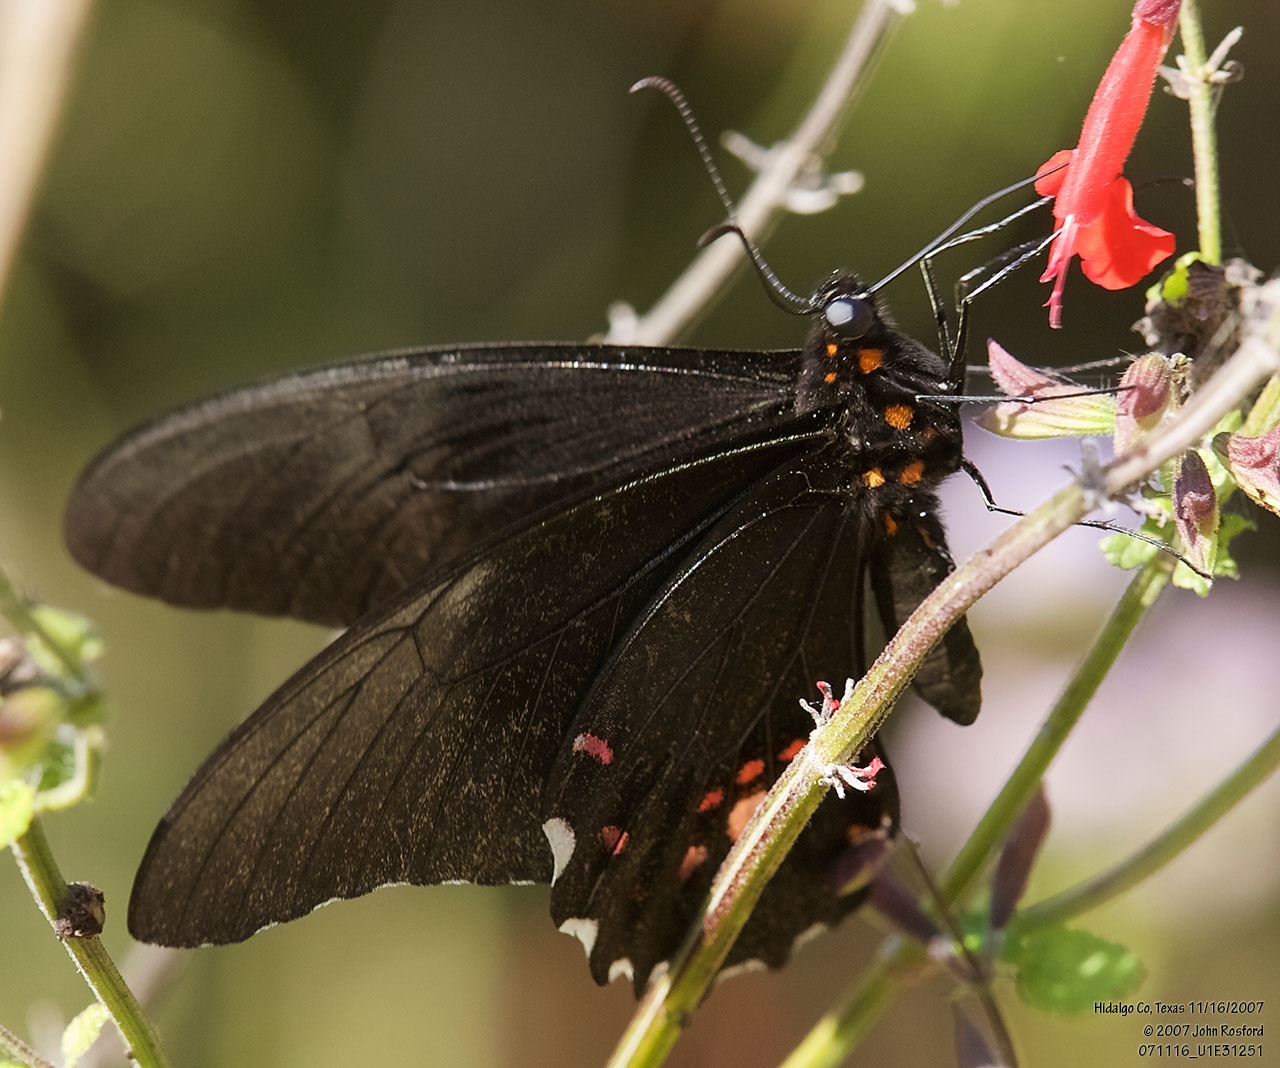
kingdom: Animalia
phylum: Arthropoda
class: Insecta
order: Lepidoptera
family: Papilionidae
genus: Papilio
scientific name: Papilio anchisiades
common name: Idaes swallowtail
